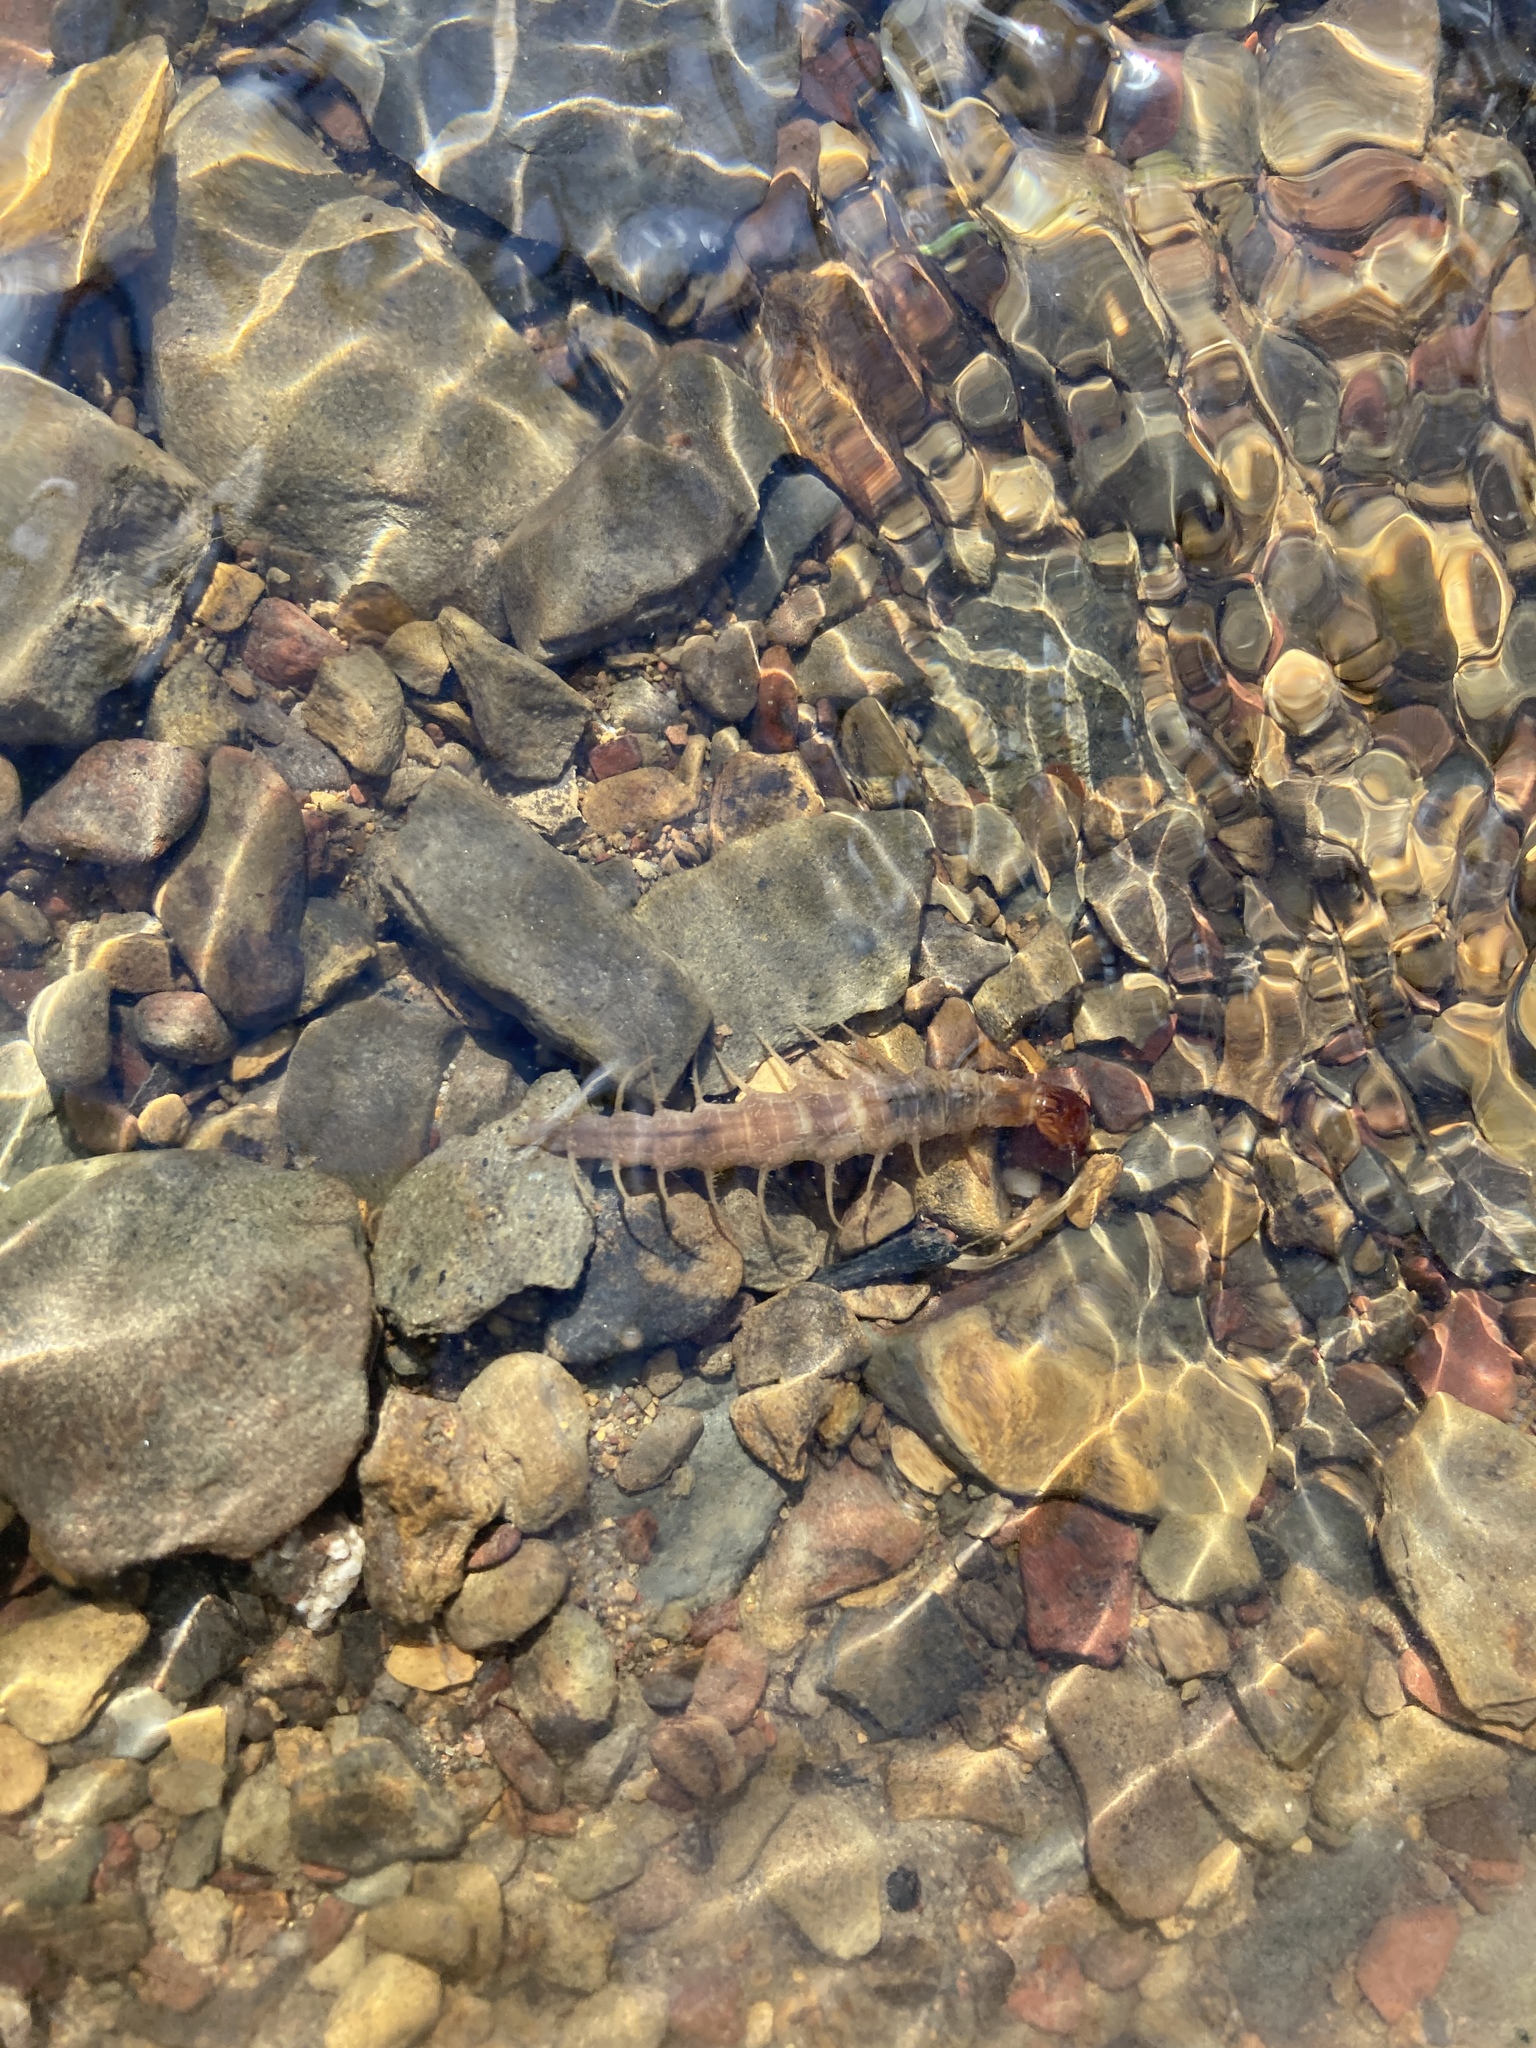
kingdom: Animalia
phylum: Arthropoda
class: Insecta
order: Megaloptera
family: Corydalidae
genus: Neohermes
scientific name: Neohermes concolor
